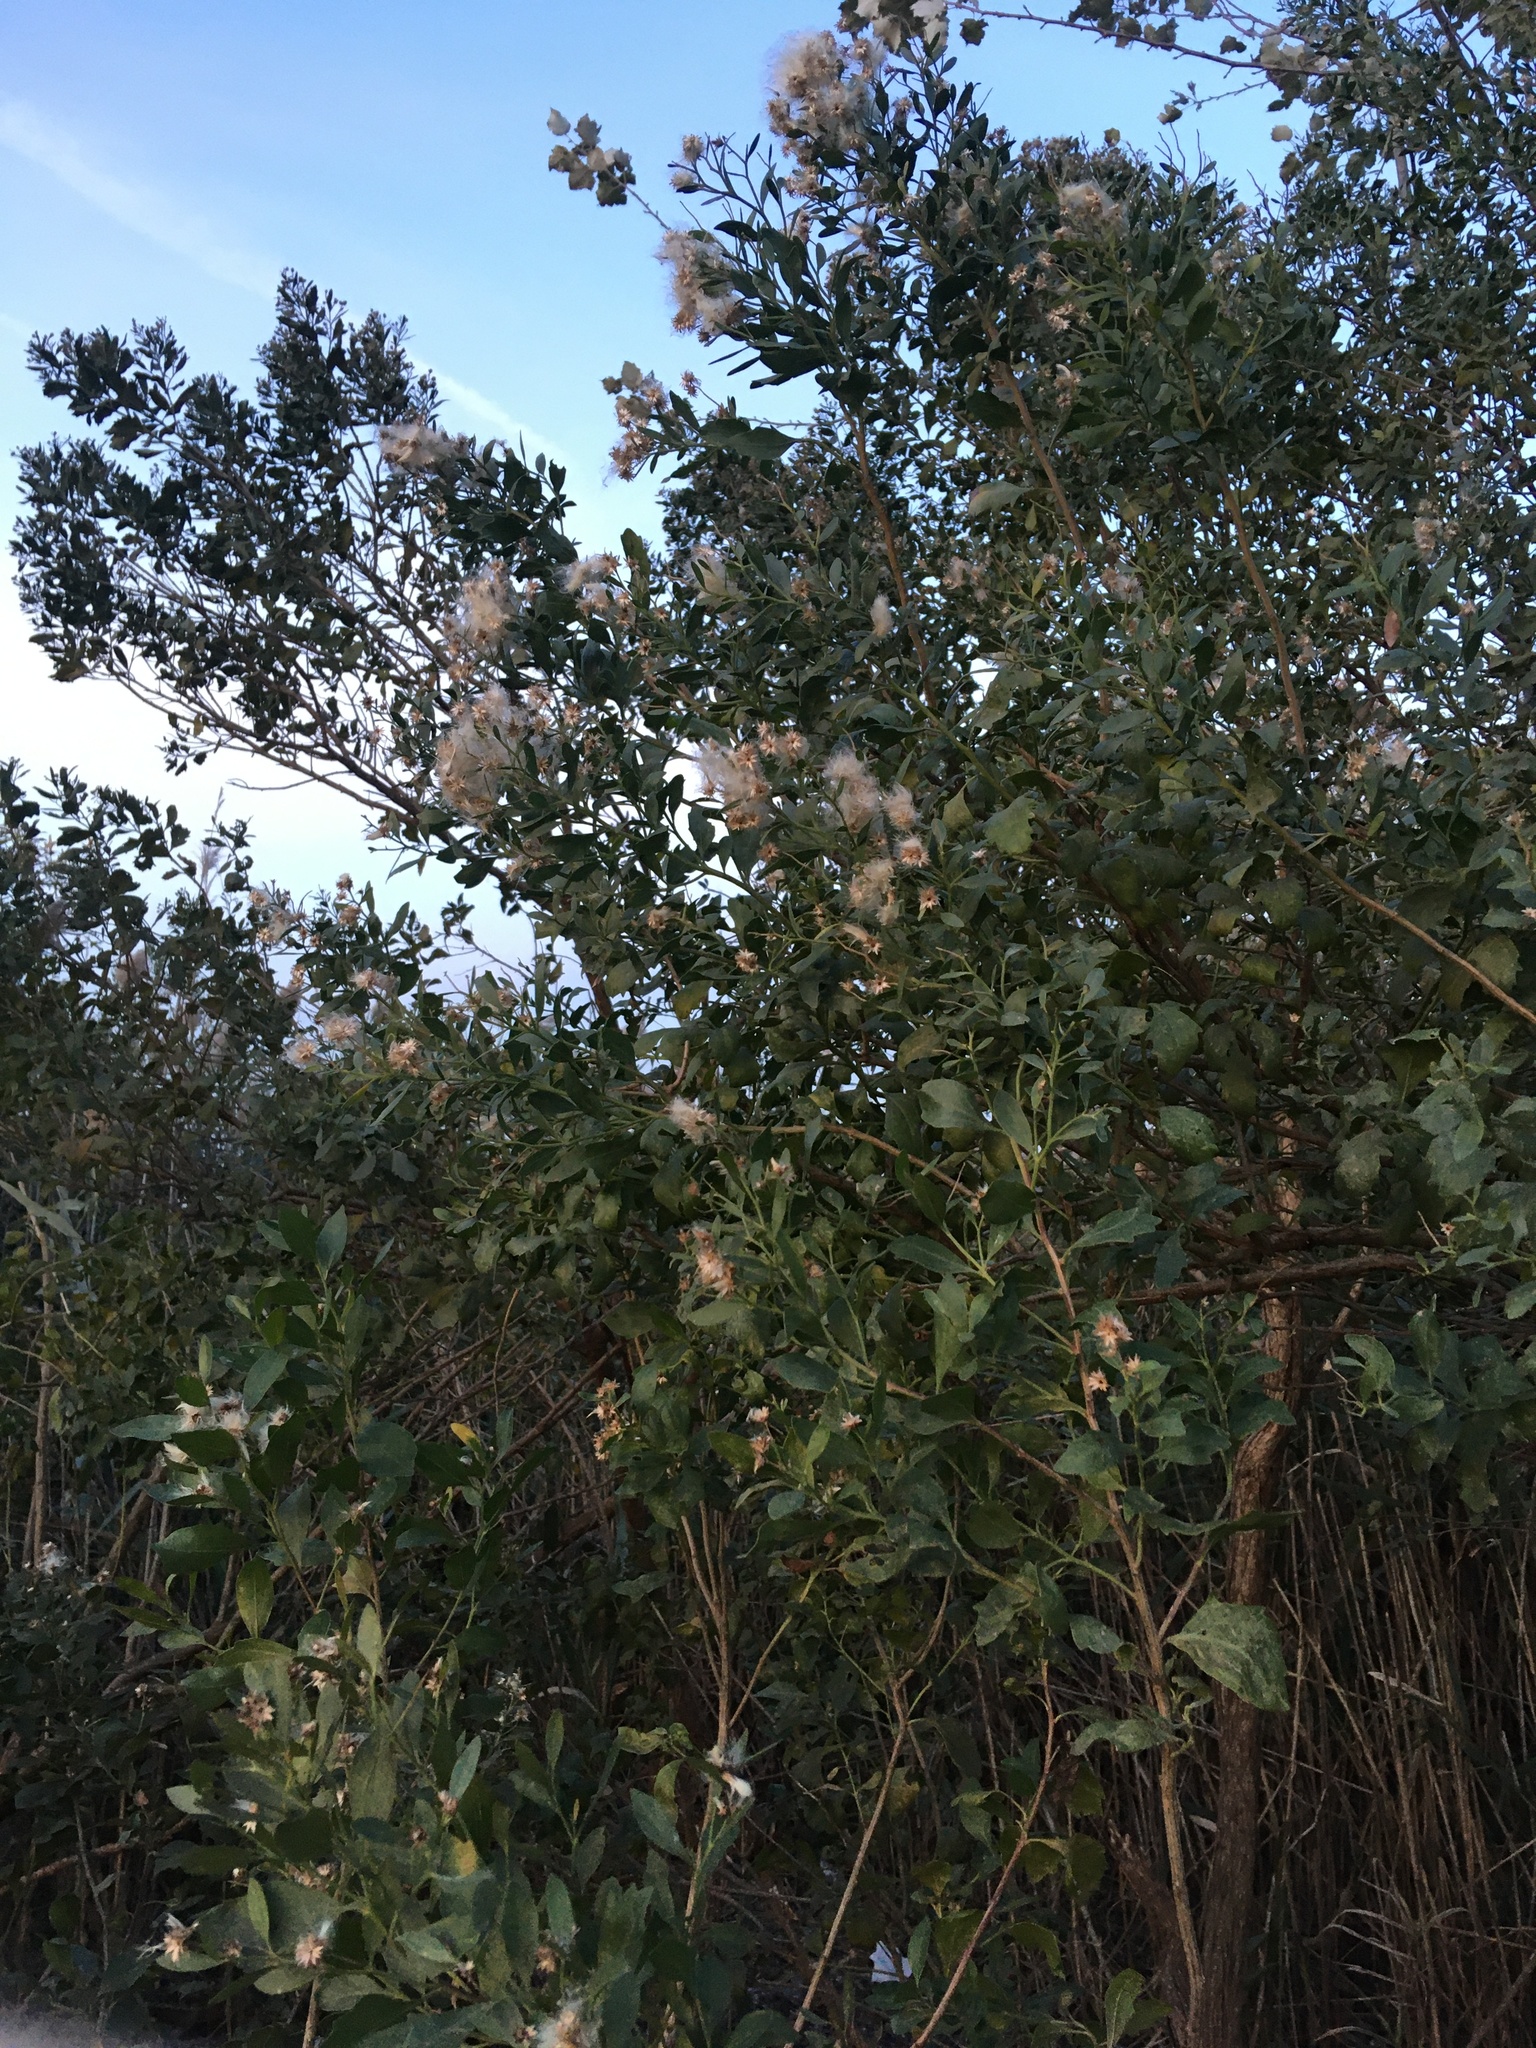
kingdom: Plantae
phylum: Tracheophyta
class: Magnoliopsida
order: Asterales
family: Asteraceae
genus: Baccharis
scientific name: Baccharis halimifolia
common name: Eastern baccharis
